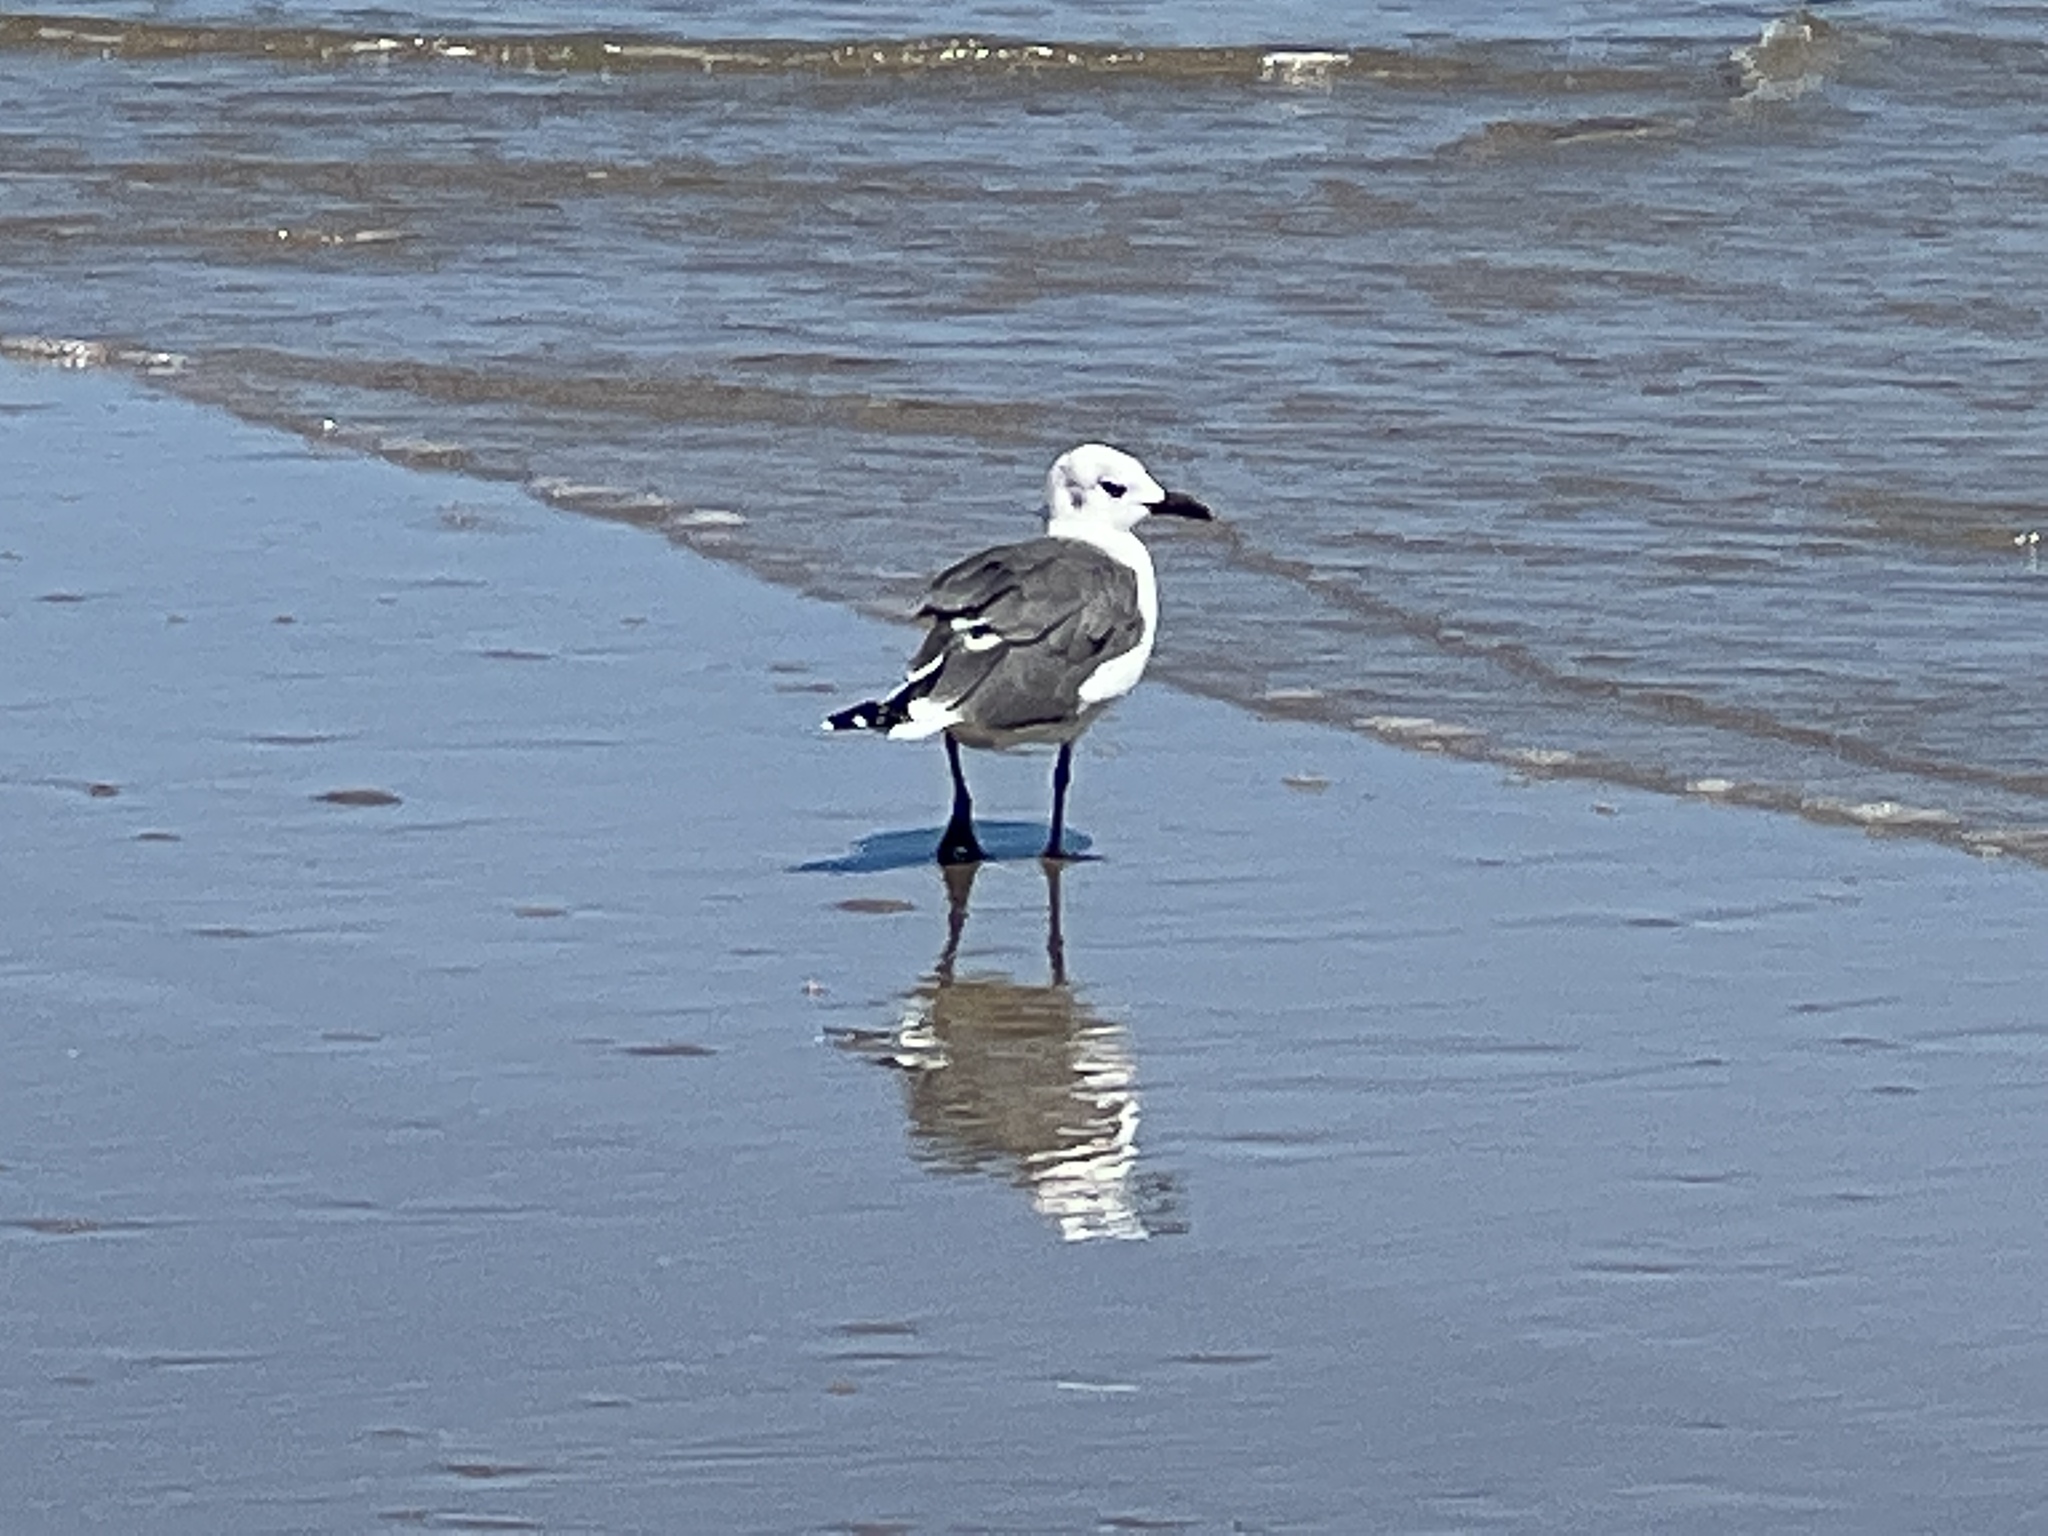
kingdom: Animalia
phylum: Chordata
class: Aves
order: Charadriiformes
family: Laridae
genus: Leucophaeus
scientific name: Leucophaeus atricilla
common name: Laughing gull
